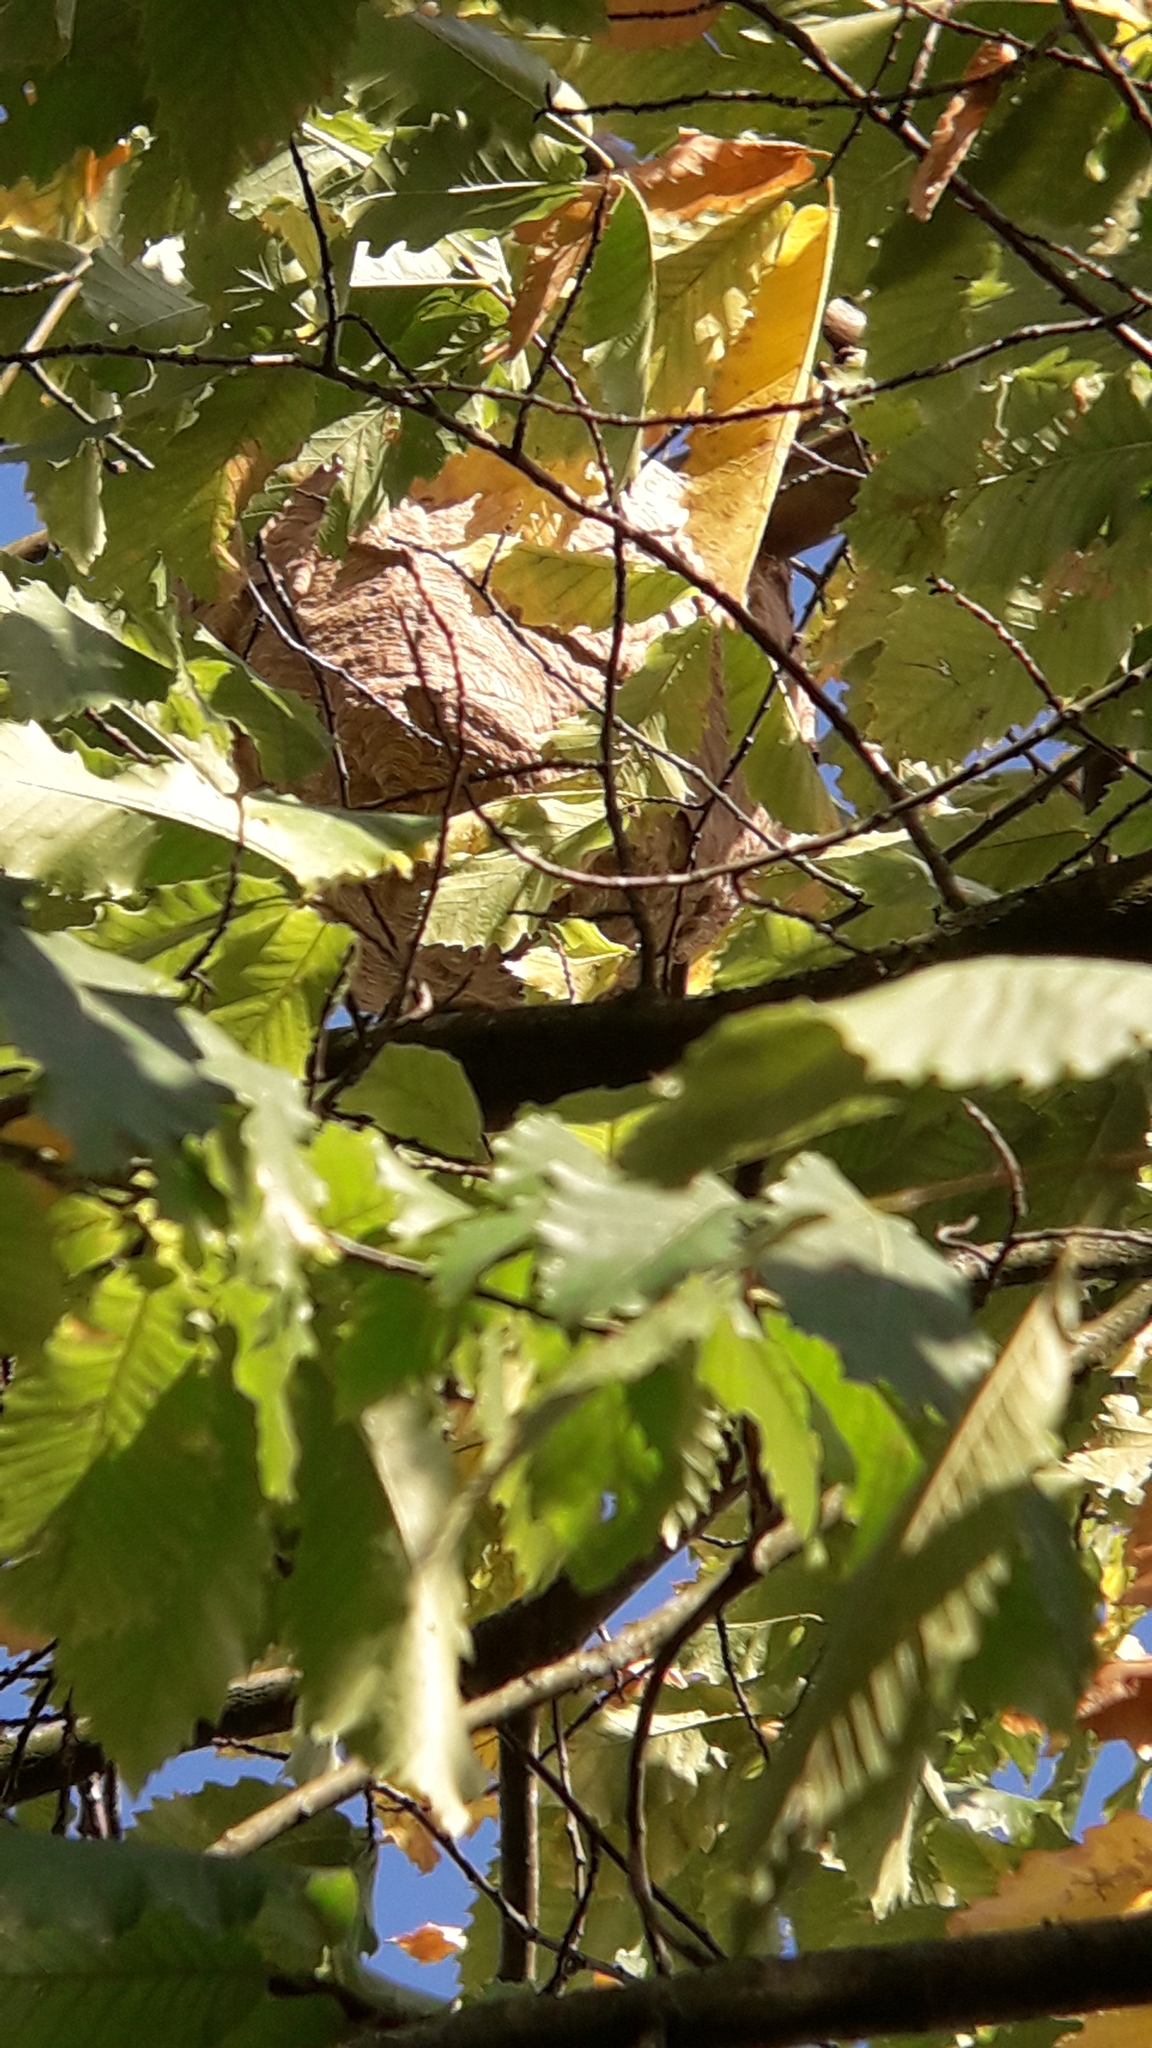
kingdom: Animalia
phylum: Arthropoda
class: Insecta
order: Hymenoptera
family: Vespidae
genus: Vespa
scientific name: Vespa velutina
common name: Asian hornet
